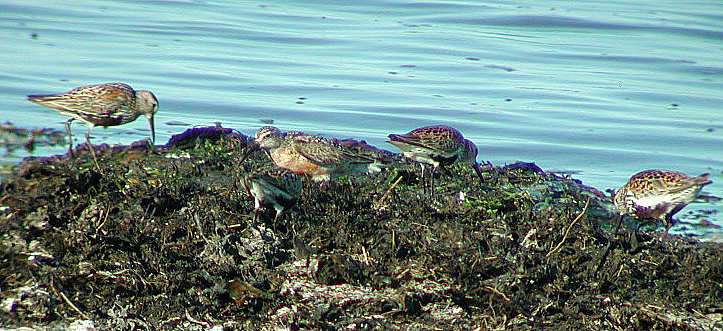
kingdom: Animalia
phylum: Chordata
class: Aves
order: Charadriiformes
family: Scolopacidae
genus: Calidris
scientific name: Calidris ferruginea
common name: Curlew sandpiper
